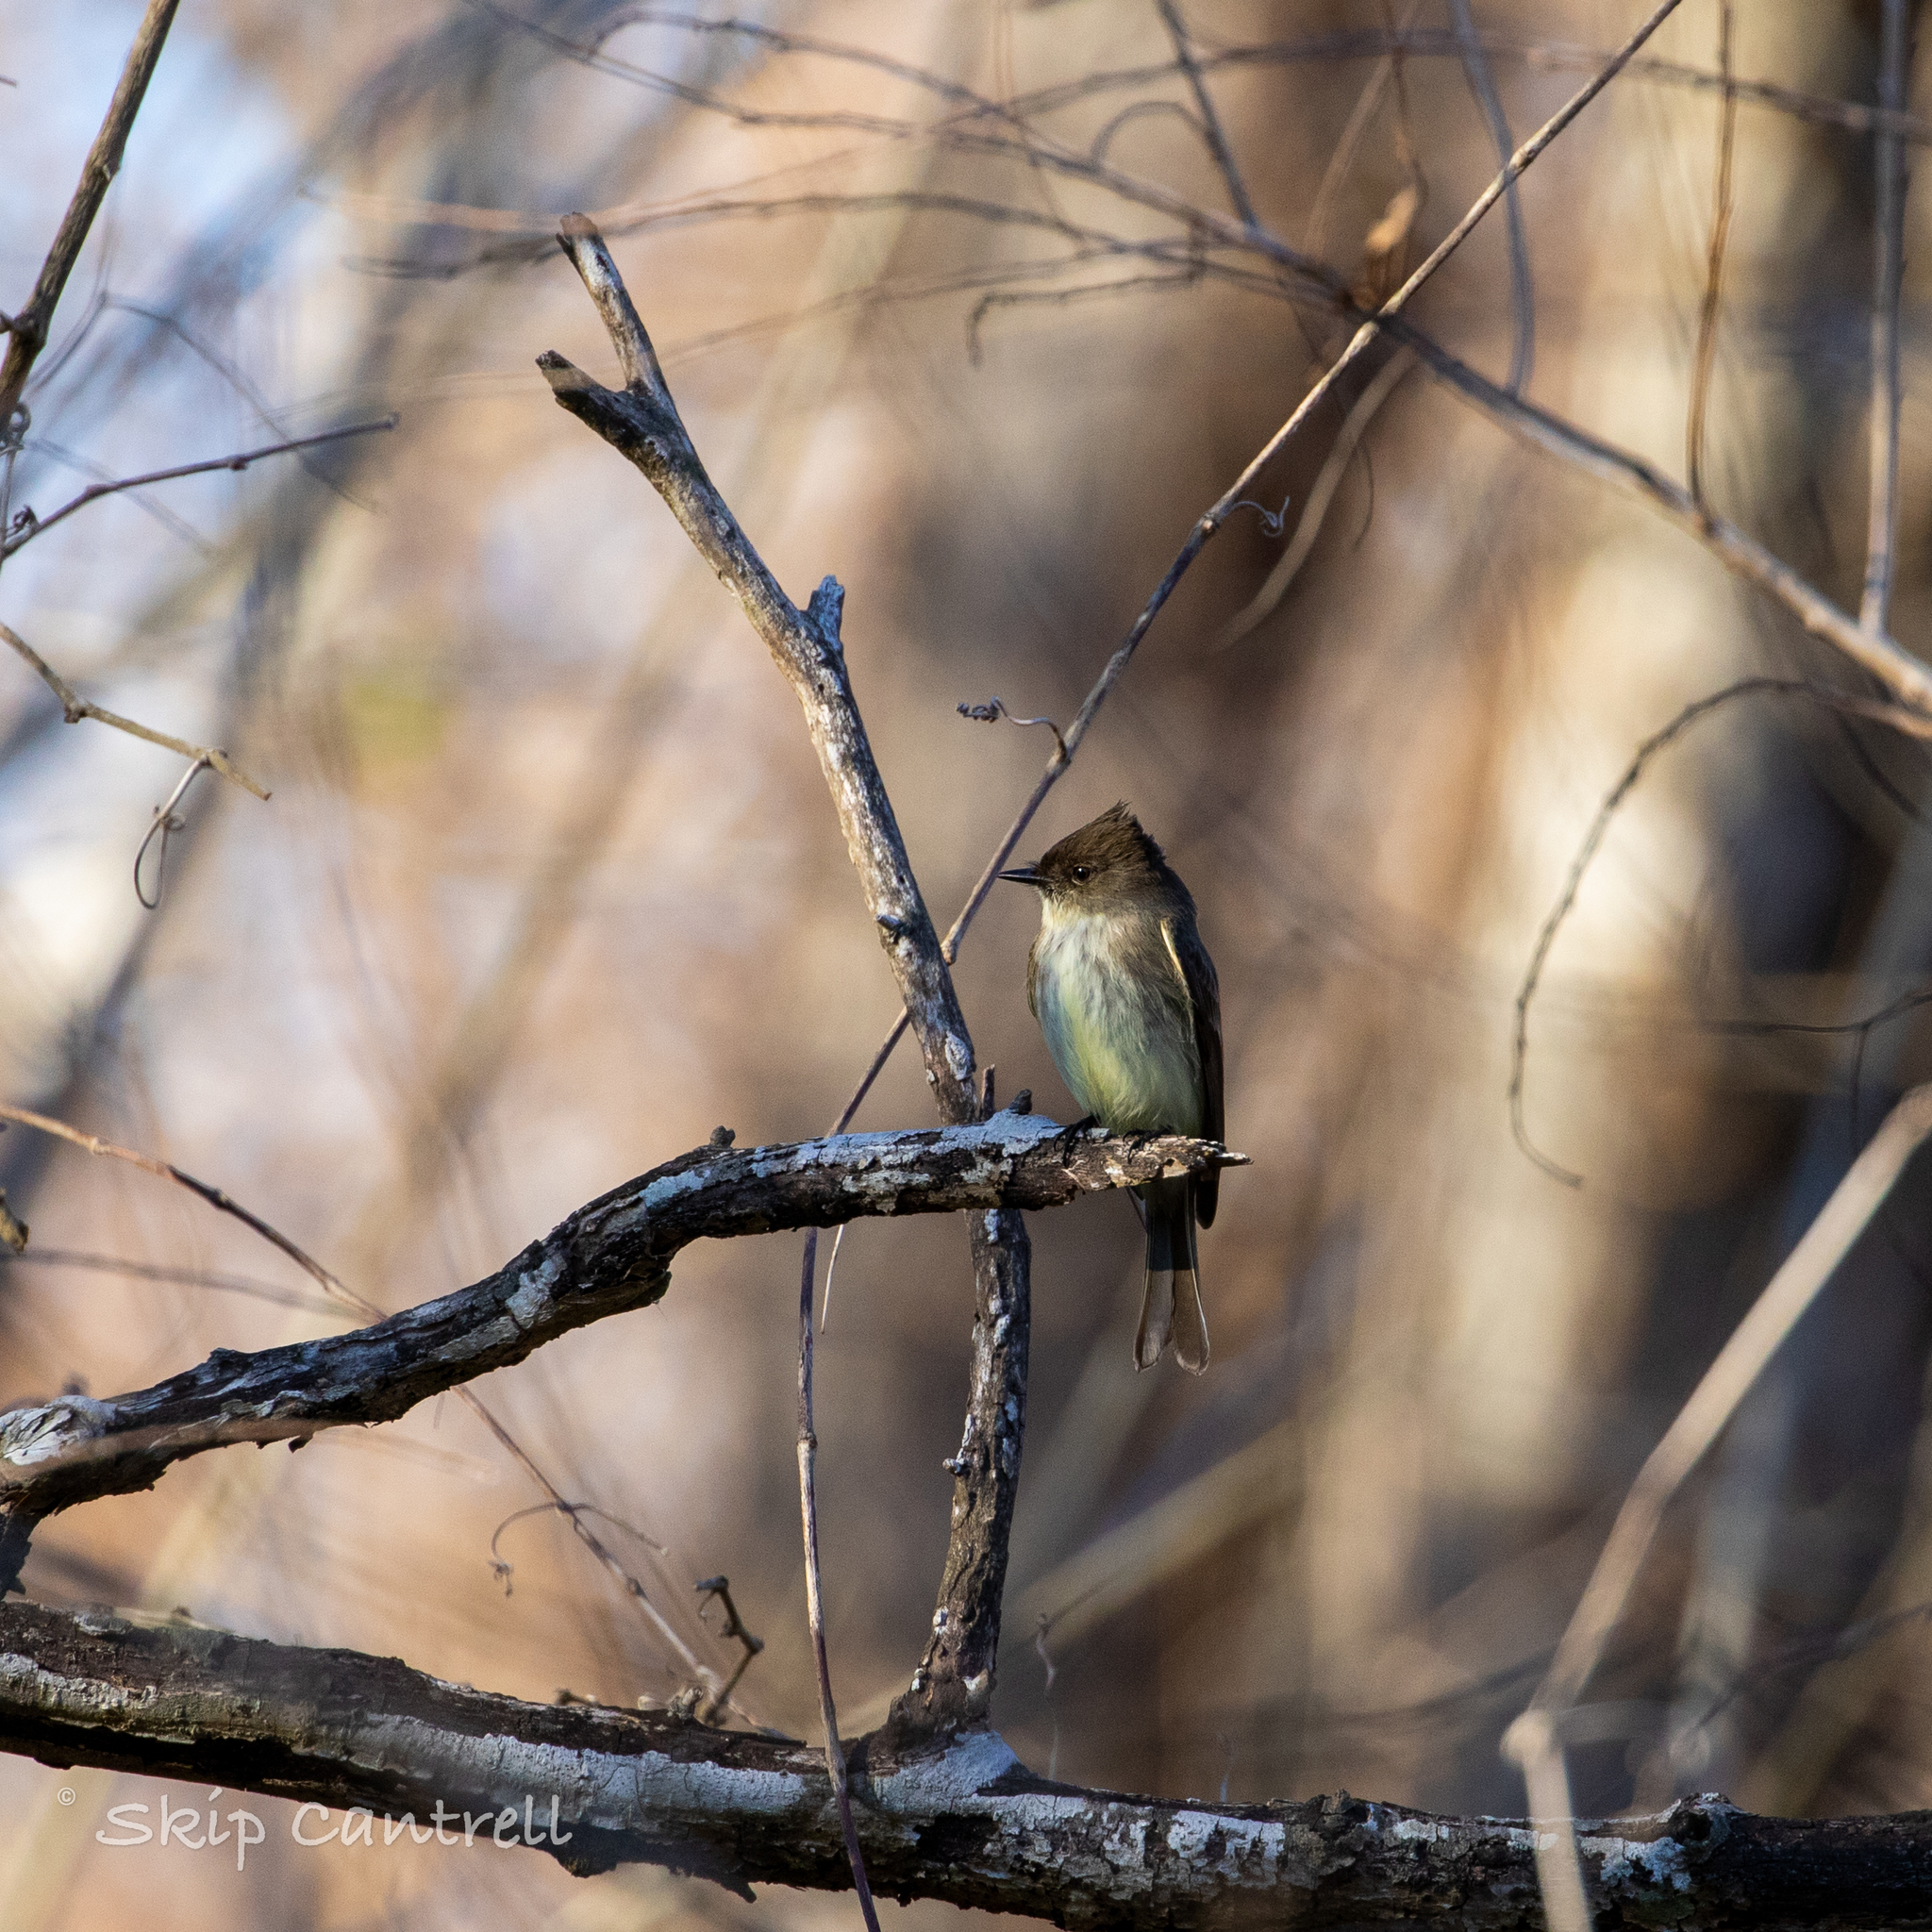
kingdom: Animalia
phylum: Chordata
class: Aves
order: Passeriformes
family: Tyrannidae
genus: Sayornis
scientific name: Sayornis phoebe
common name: Eastern phoebe
